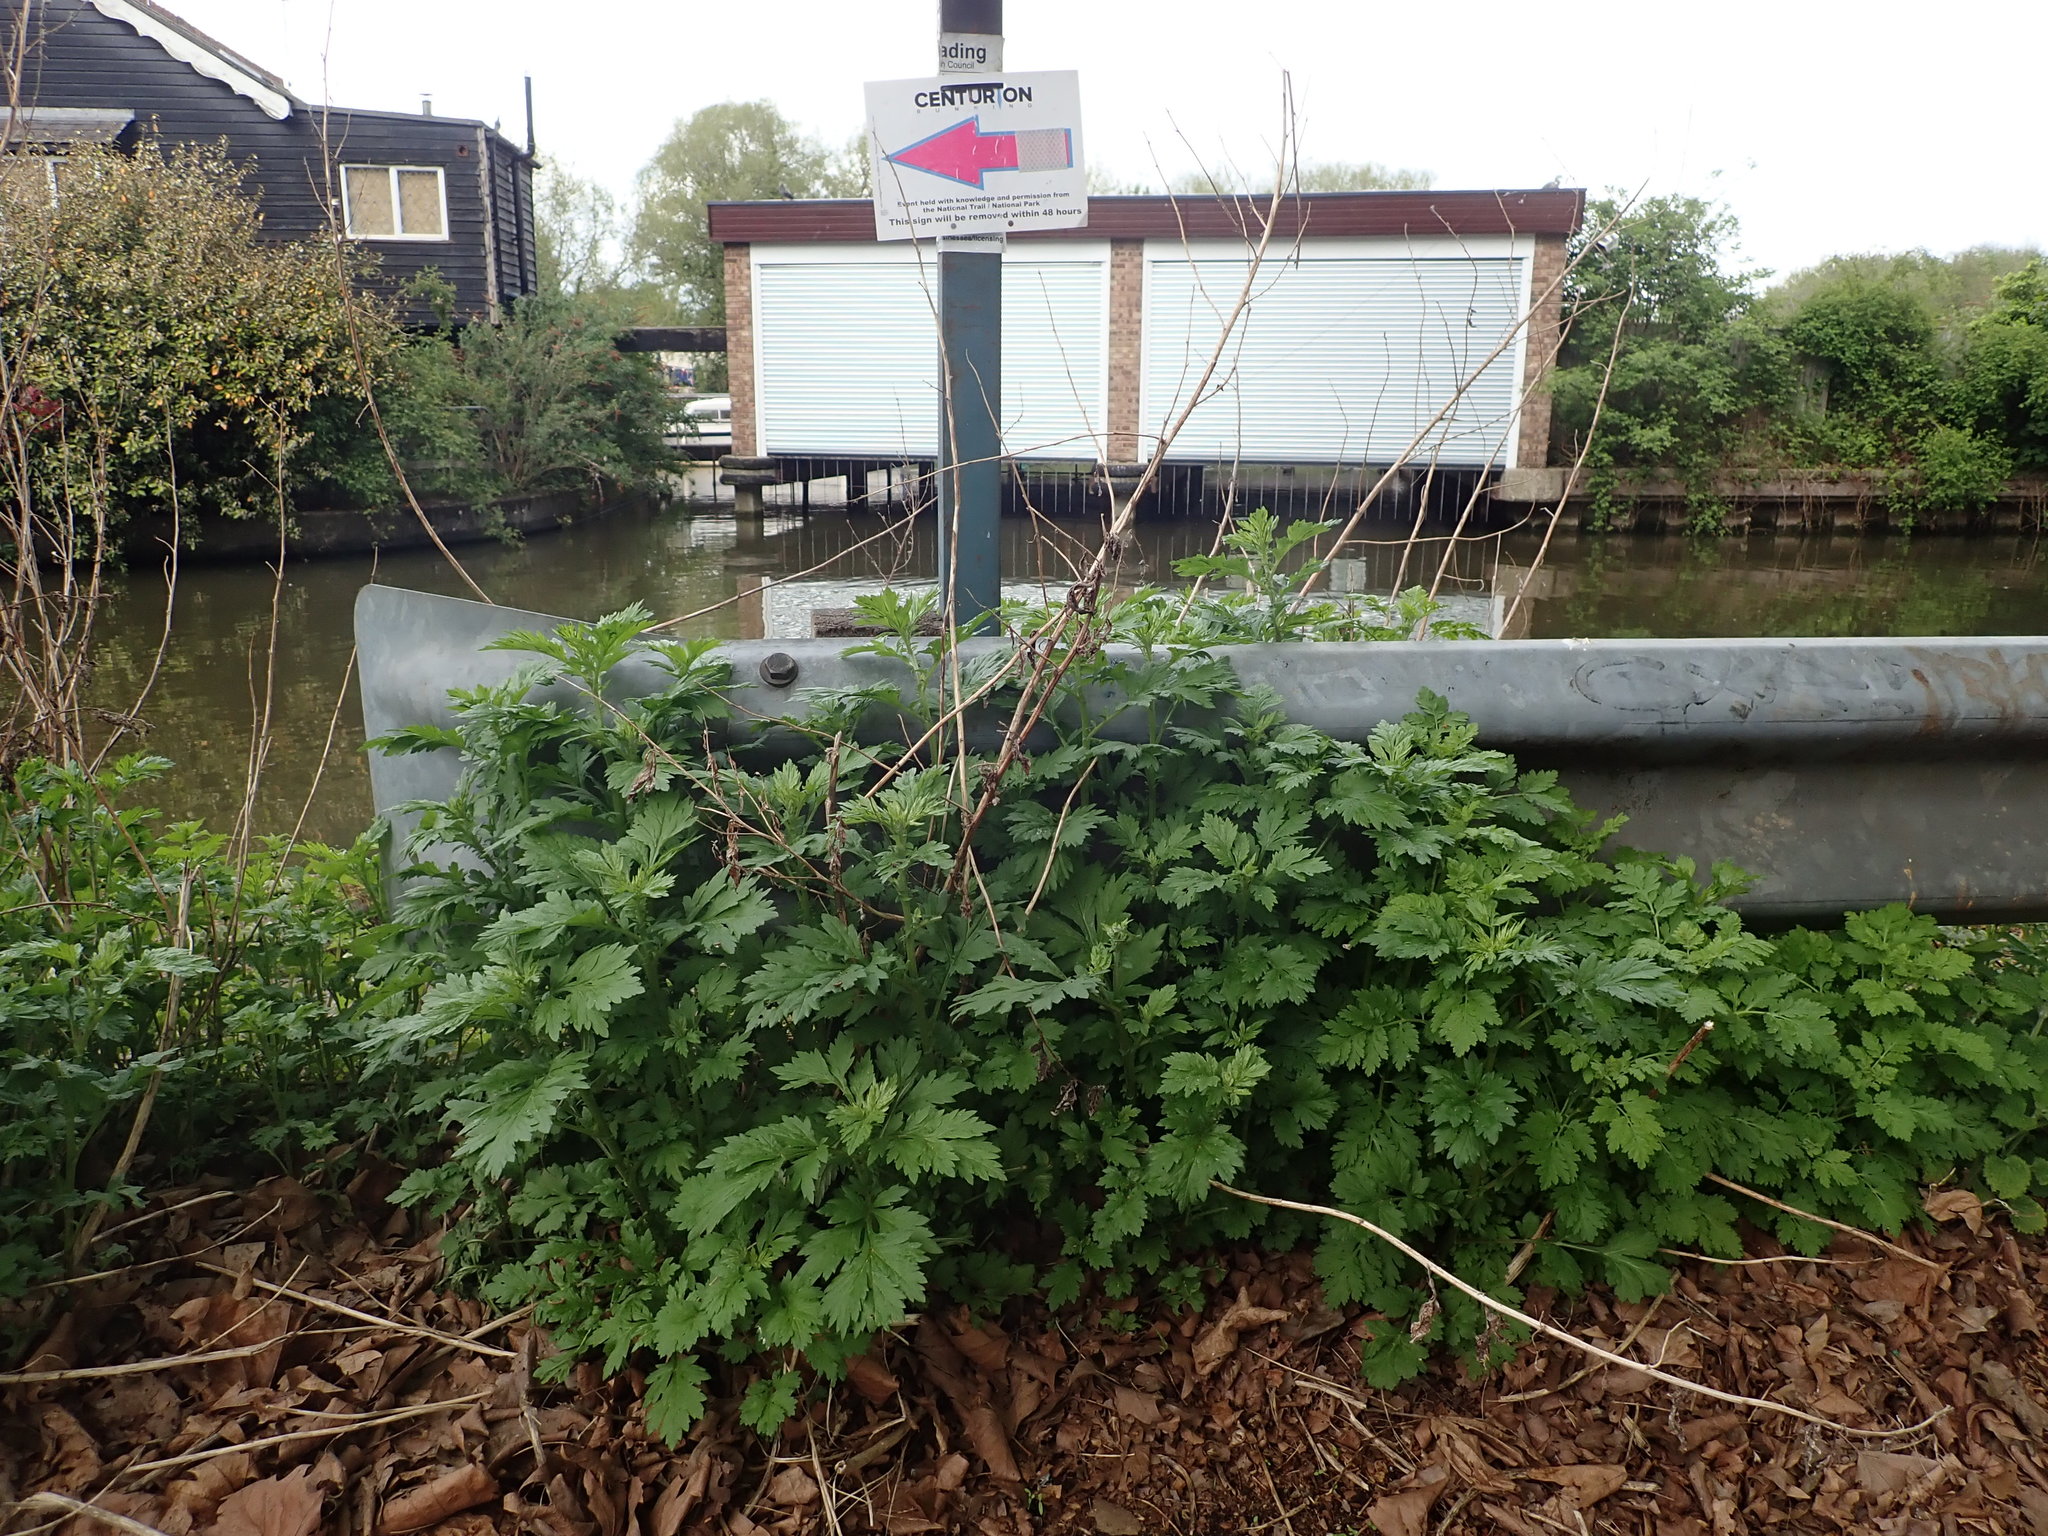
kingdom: Plantae
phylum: Tracheophyta
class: Magnoliopsida
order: Asterales
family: Asteraceae
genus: Artemisia
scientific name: Artemisia vulgaris
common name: Mugwort
